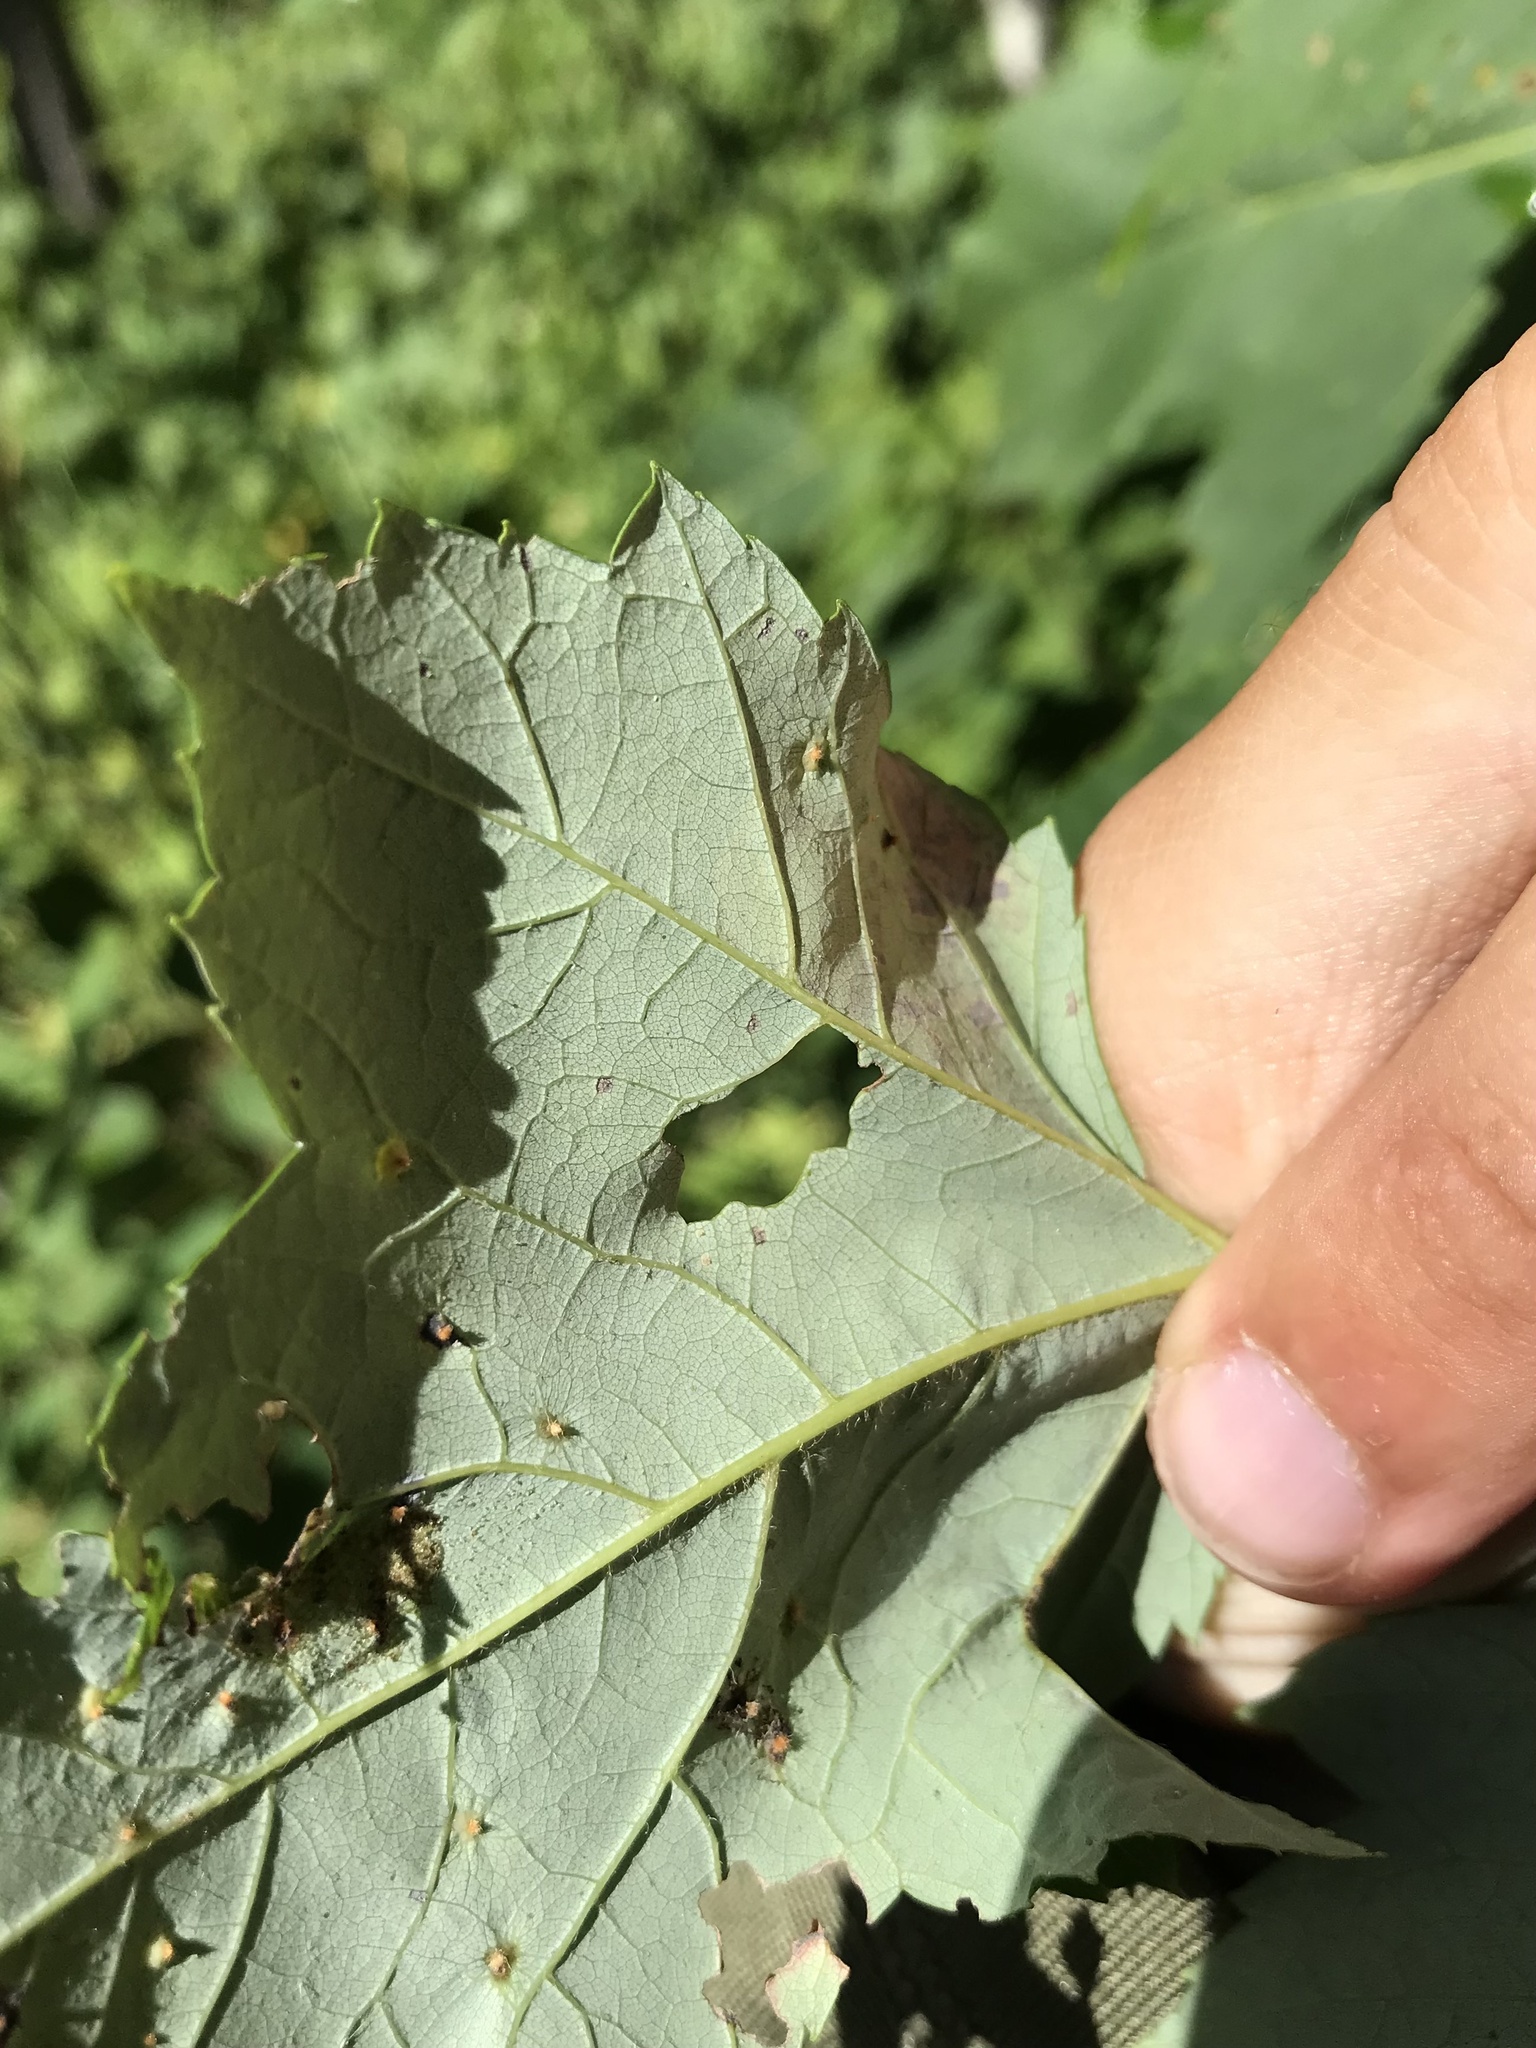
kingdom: Animalia
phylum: Arthropoda
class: Insecta
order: Lepidoptera
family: Gracillariidae
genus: Cameraria
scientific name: Cameraria aceriella
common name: Maple leafblotch miner
